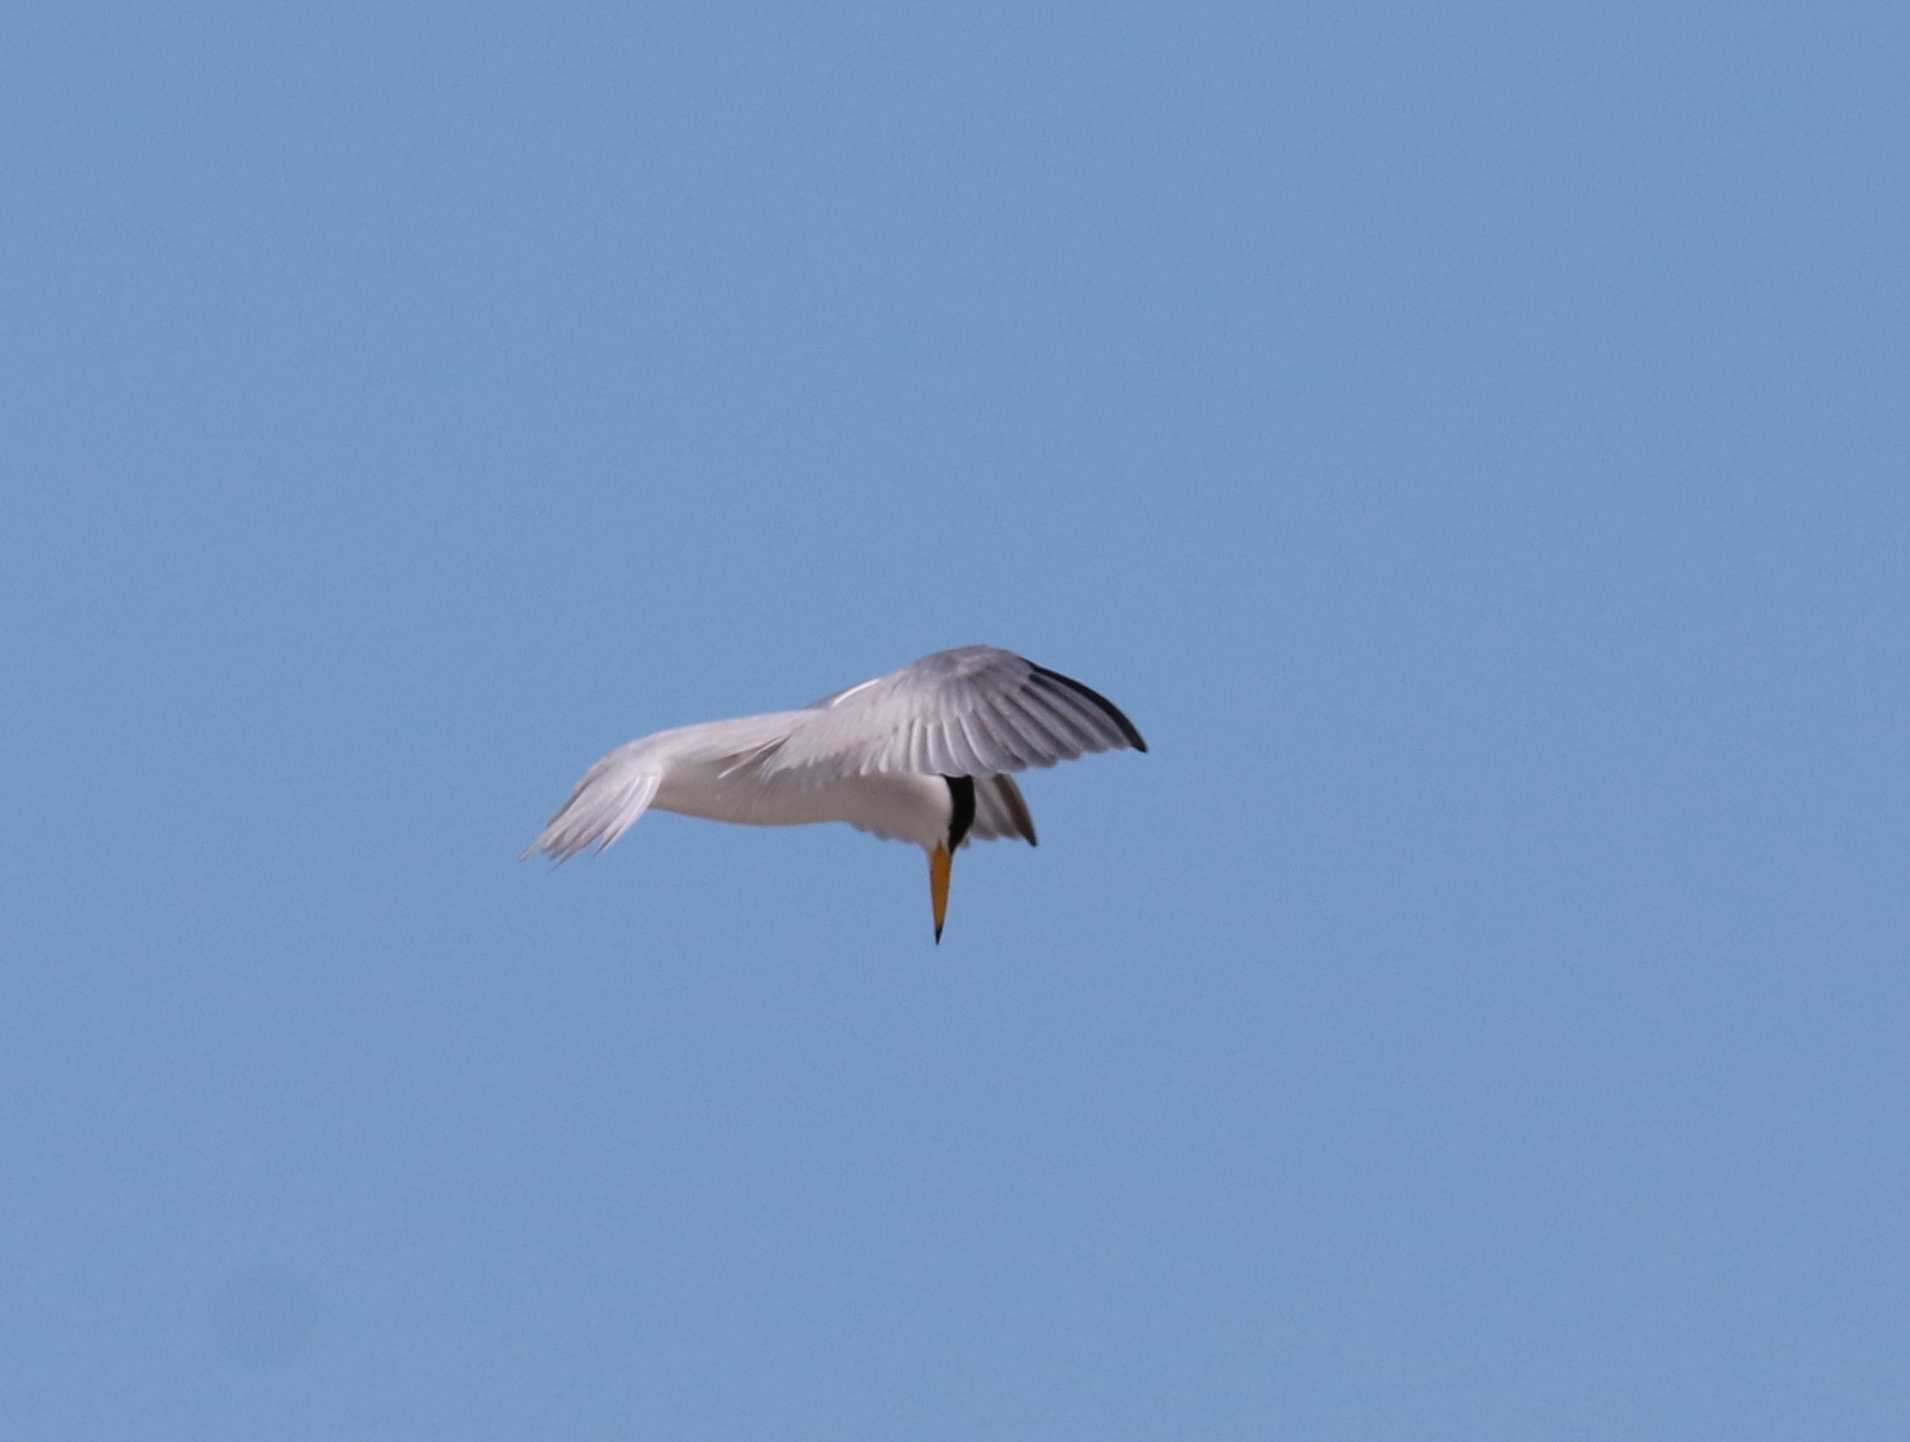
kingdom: Animalia
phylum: Chordata
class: Aves
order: Charadriiformes
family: Laridae
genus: Sternula
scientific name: Sternula antillarum
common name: Least tern
